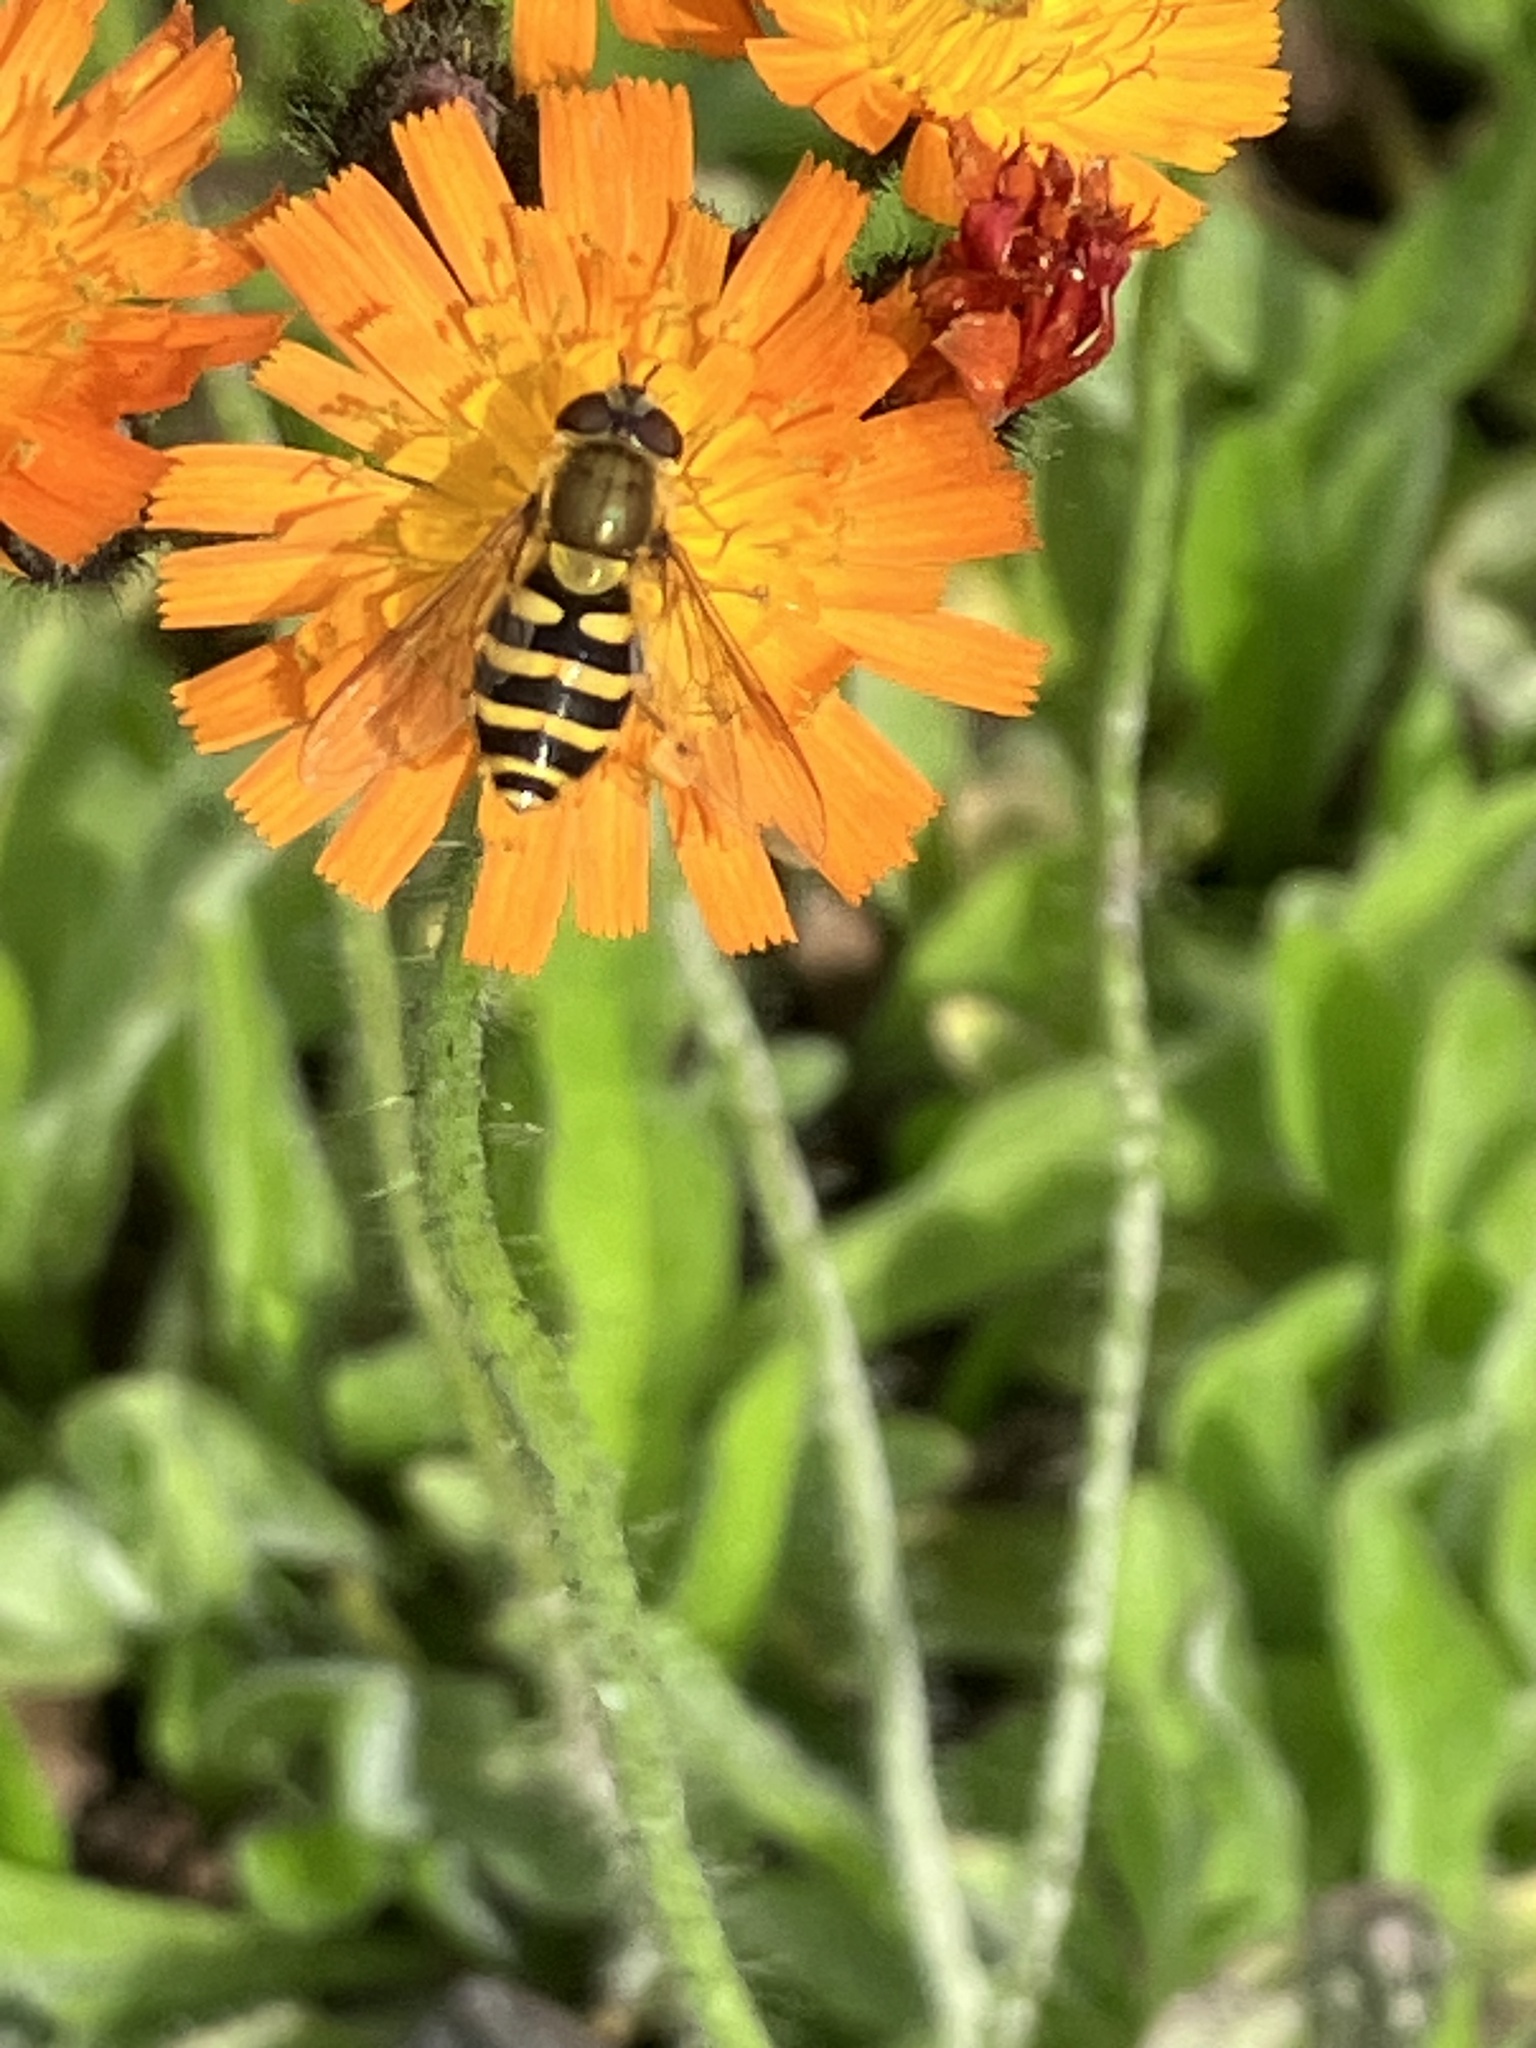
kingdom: Animalia
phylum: Arthropoda
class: Insecta
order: Diptera
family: Syrphidae
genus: Syrphus
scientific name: Syrphus
